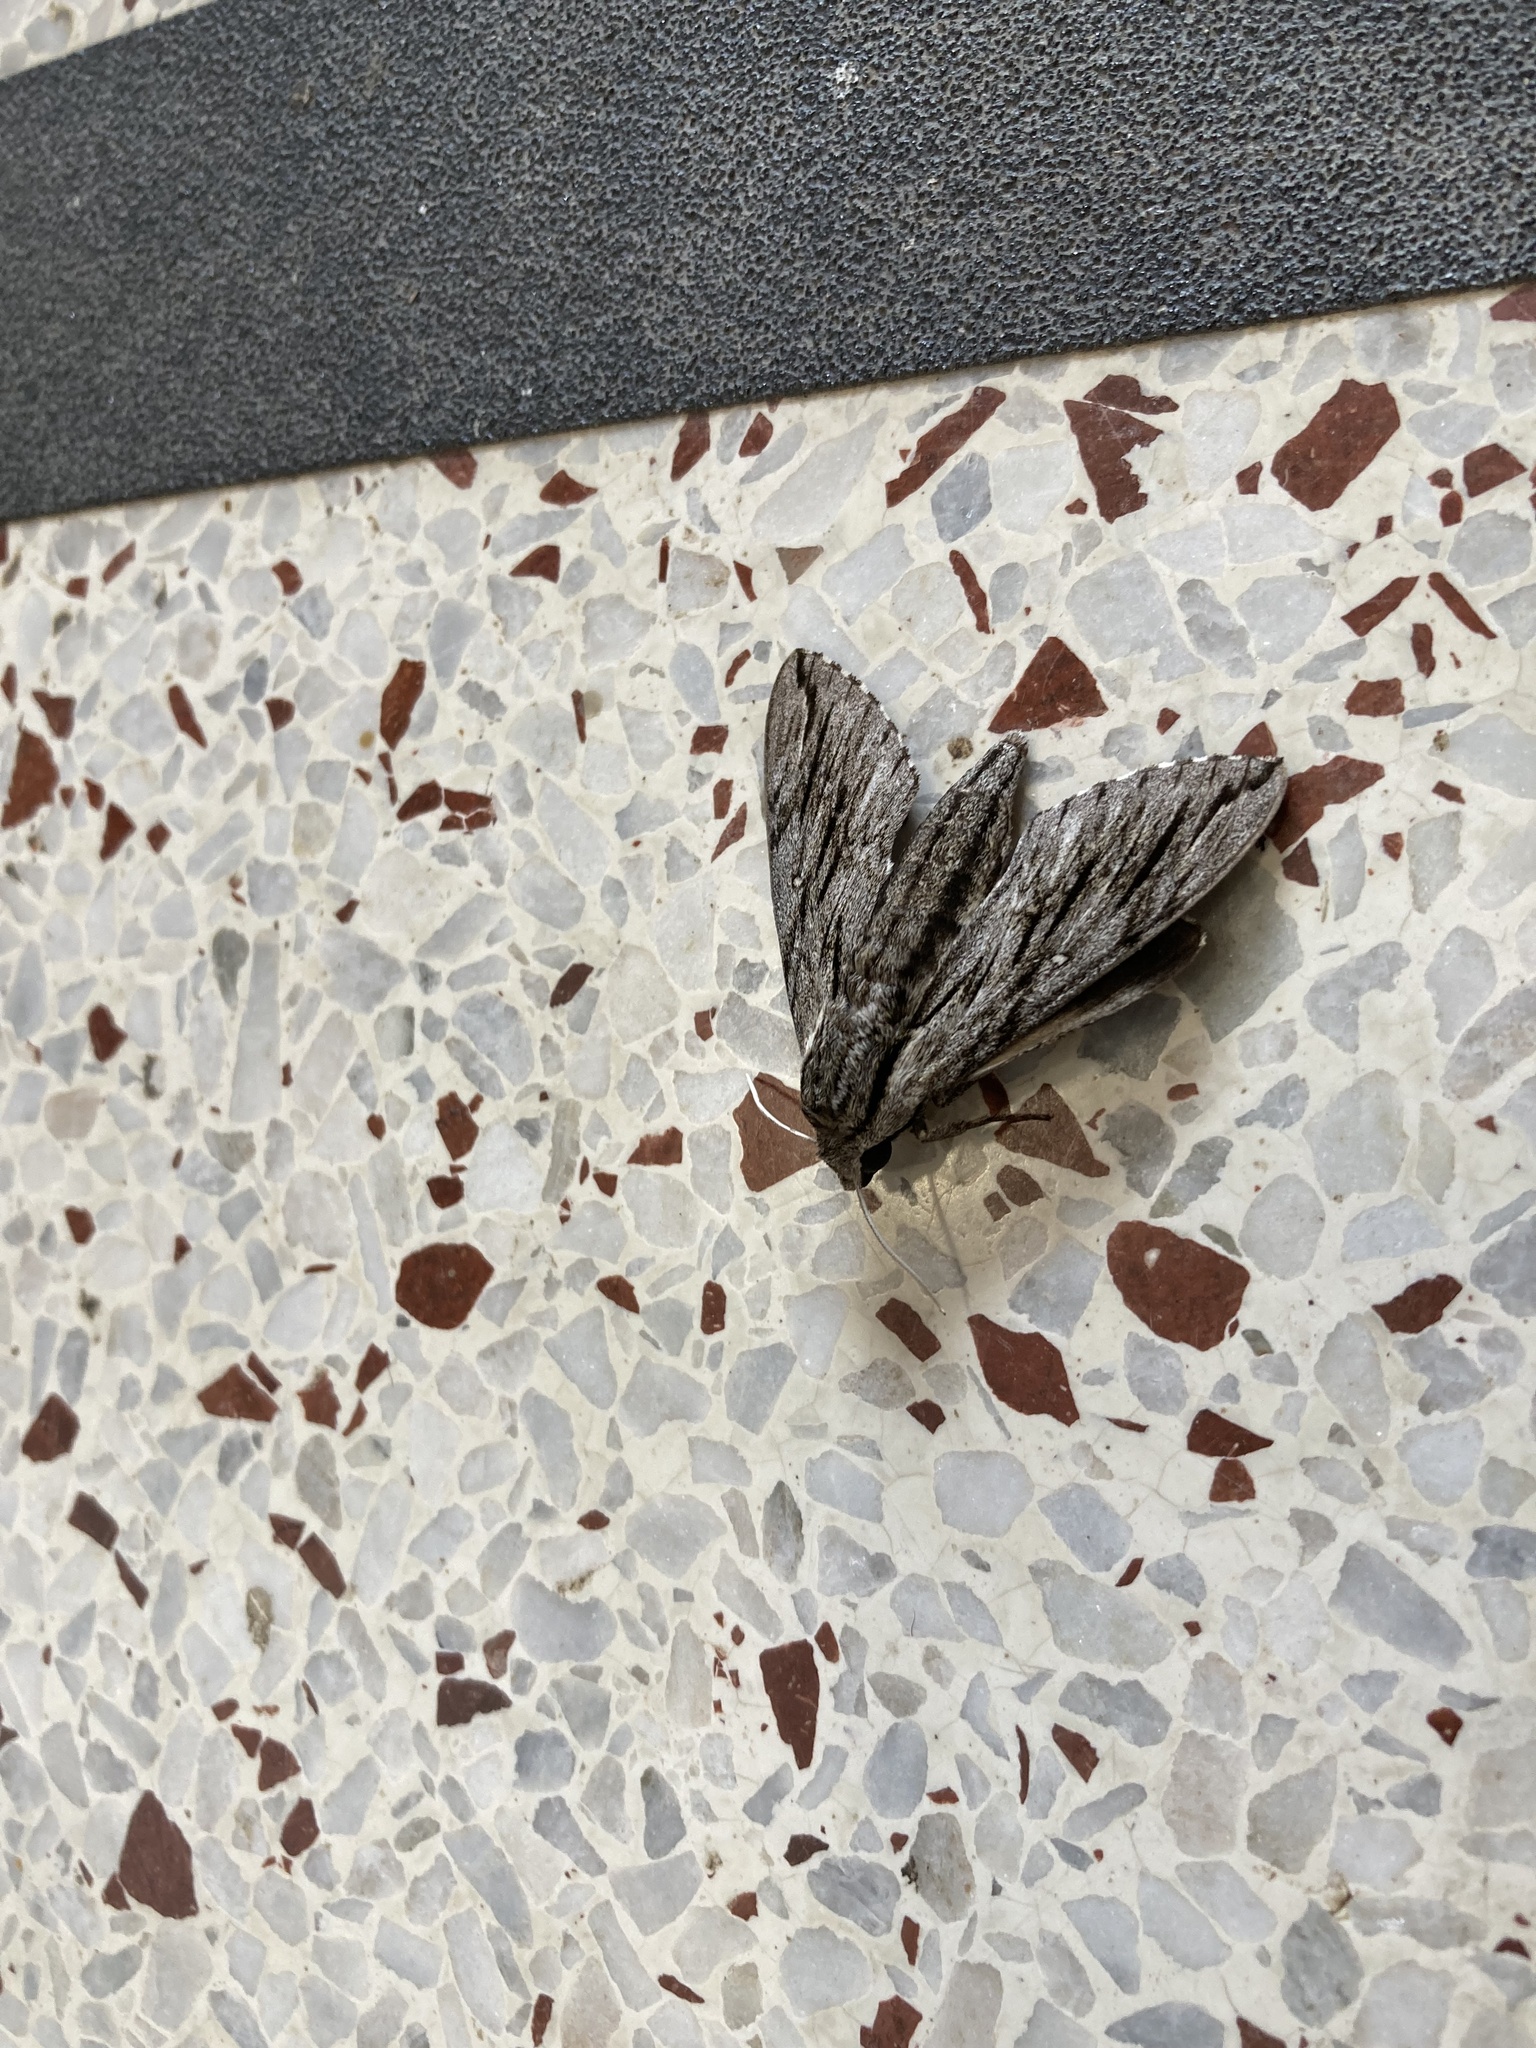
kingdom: Animalia
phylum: Arthropoda
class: Insecta
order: Lepidoptera
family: Sphingidae
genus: Paratrea
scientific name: Paratrea plebeja
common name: Plebian sphinx
